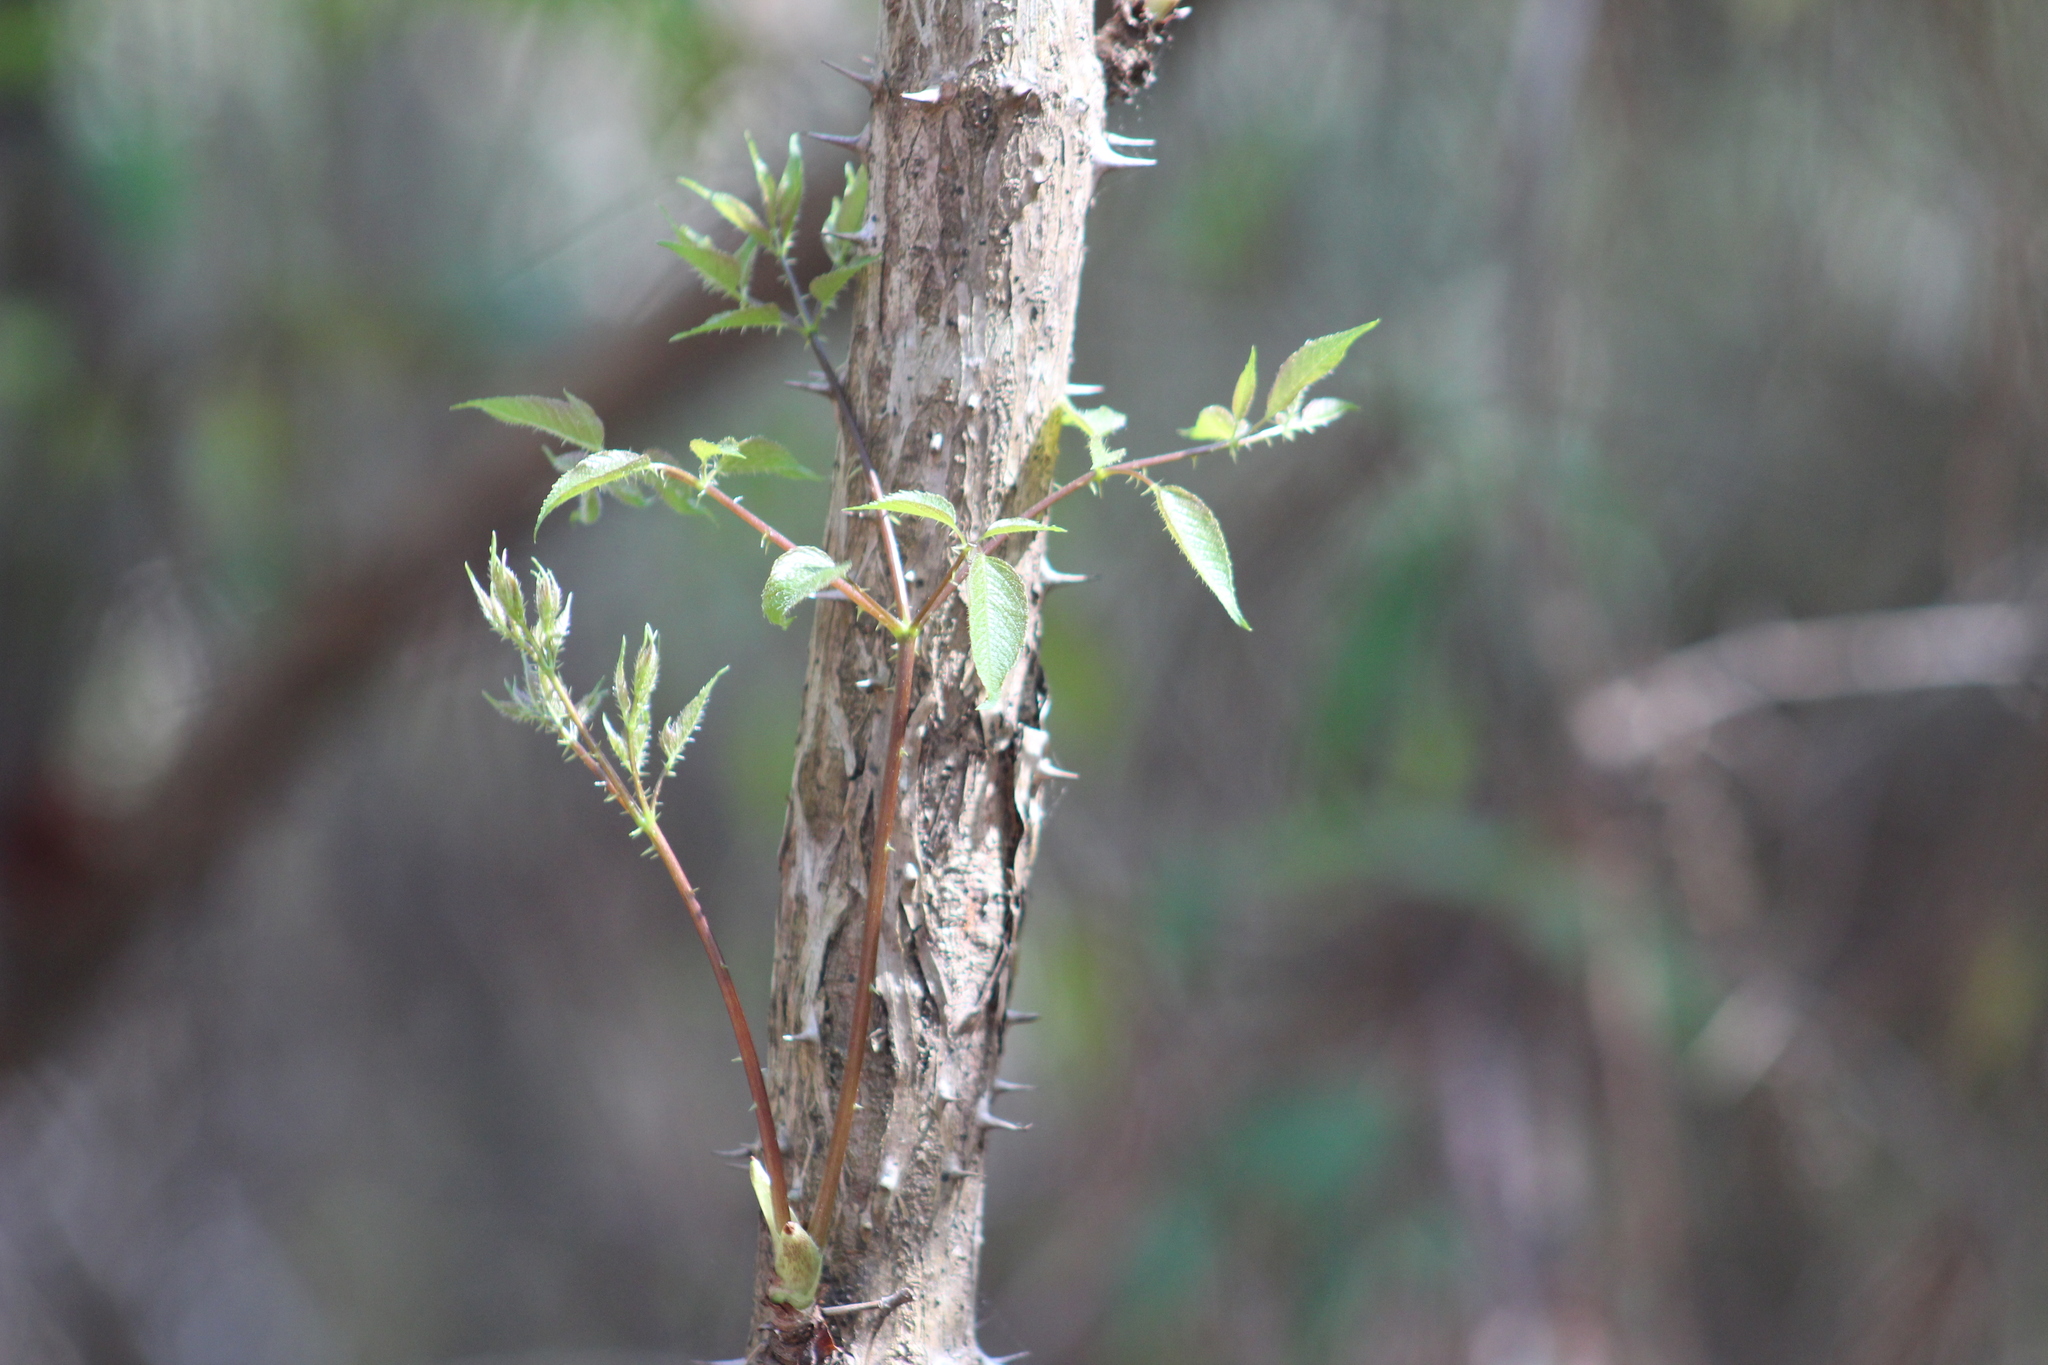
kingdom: Plantae
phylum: Tracheophyta
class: Magnoliopsida
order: Apiales
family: Araliaceae
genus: Aralia
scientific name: Aralia spinosa
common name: Hercules'-club
